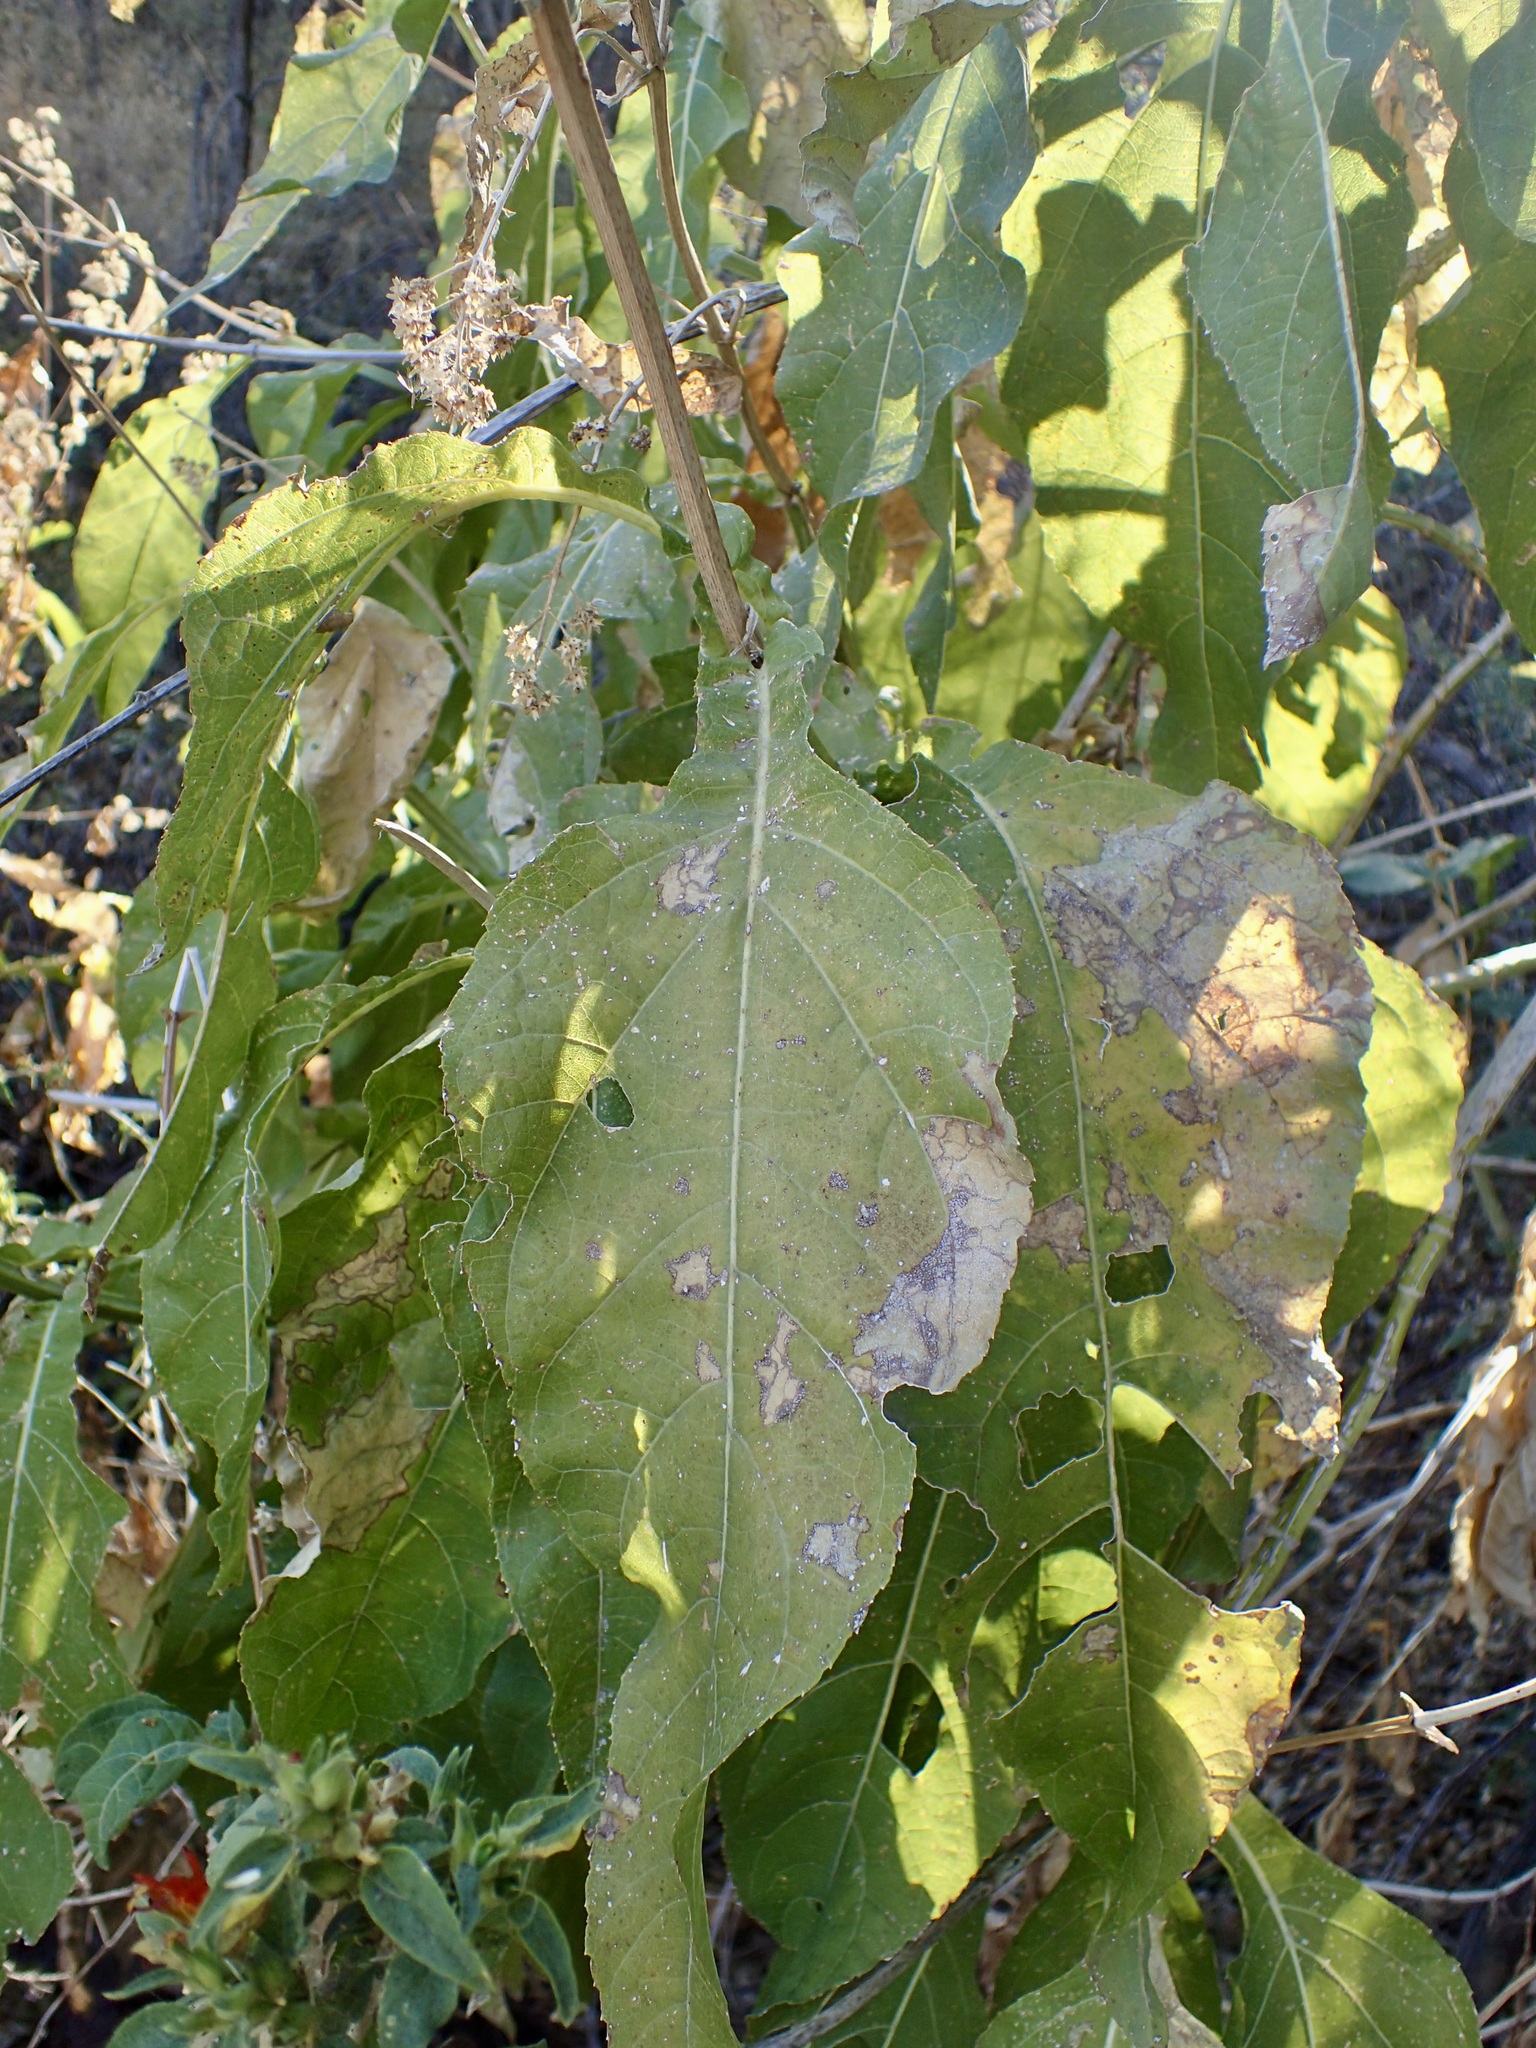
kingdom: Plantae
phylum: Tracheophyta
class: Magnoliopsida
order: Asterales
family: Asteraceae
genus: Critonia
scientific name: Critonia quadrangularis
